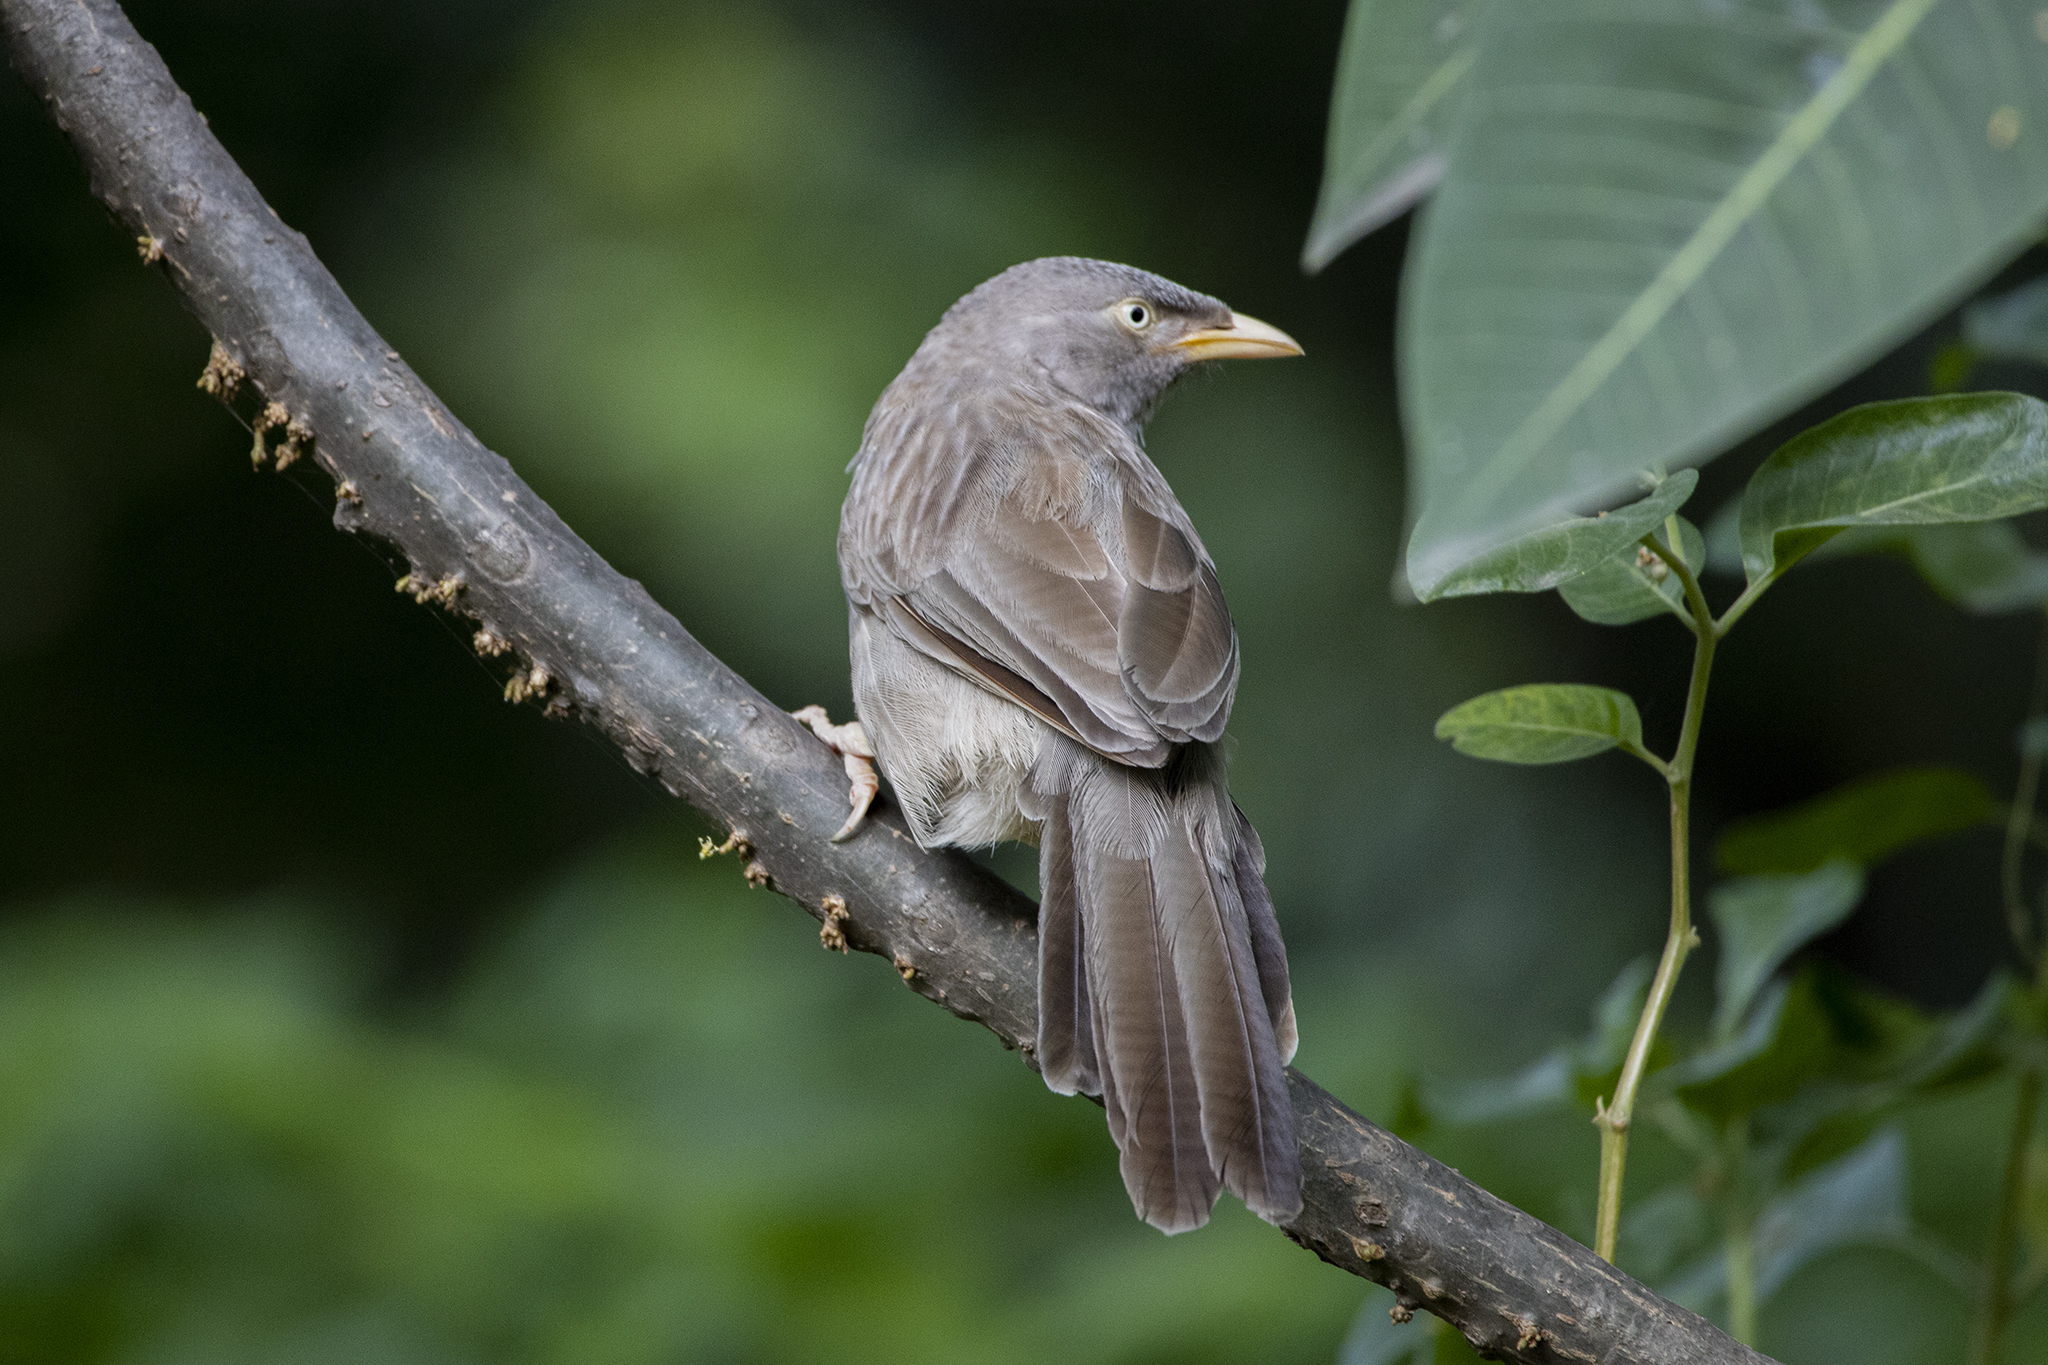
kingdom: Animalia
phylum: Chordata
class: Aves
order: Passeriformes
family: Leiothrichidae
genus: Turdoides
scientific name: Turdoides striata
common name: Jungle babbler
